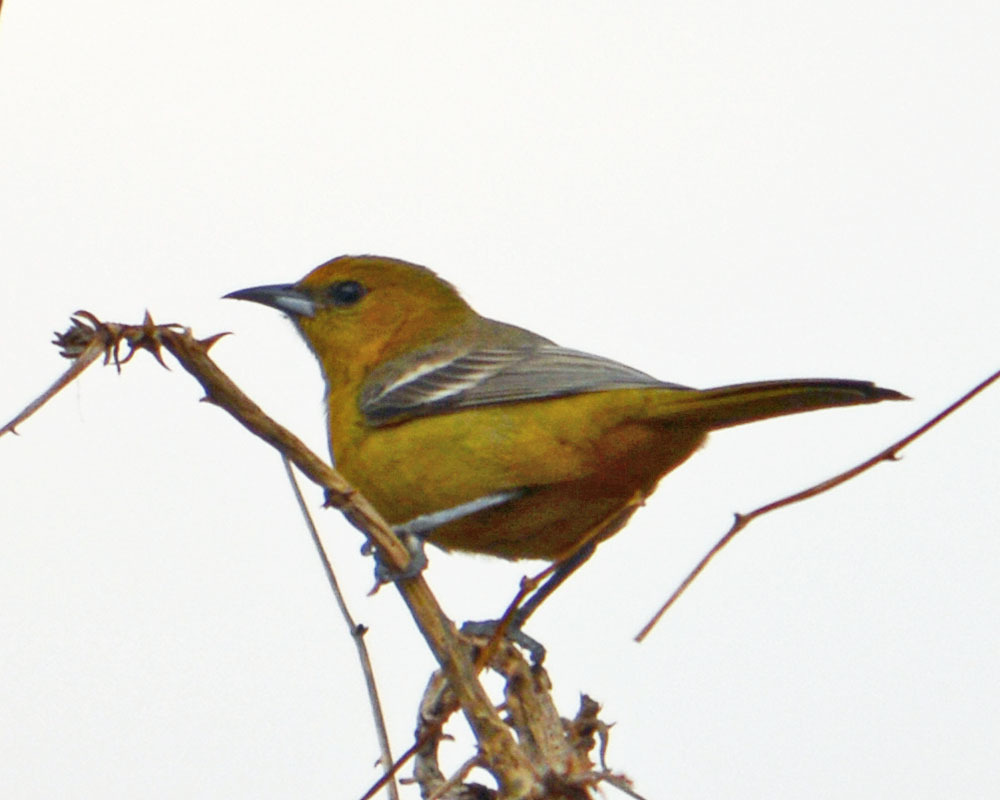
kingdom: Animalia
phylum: Chordata
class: Aves
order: Passeriformes
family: Icteridae
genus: Icterus
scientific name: Icterus cucullatus
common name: Hooded oriole
